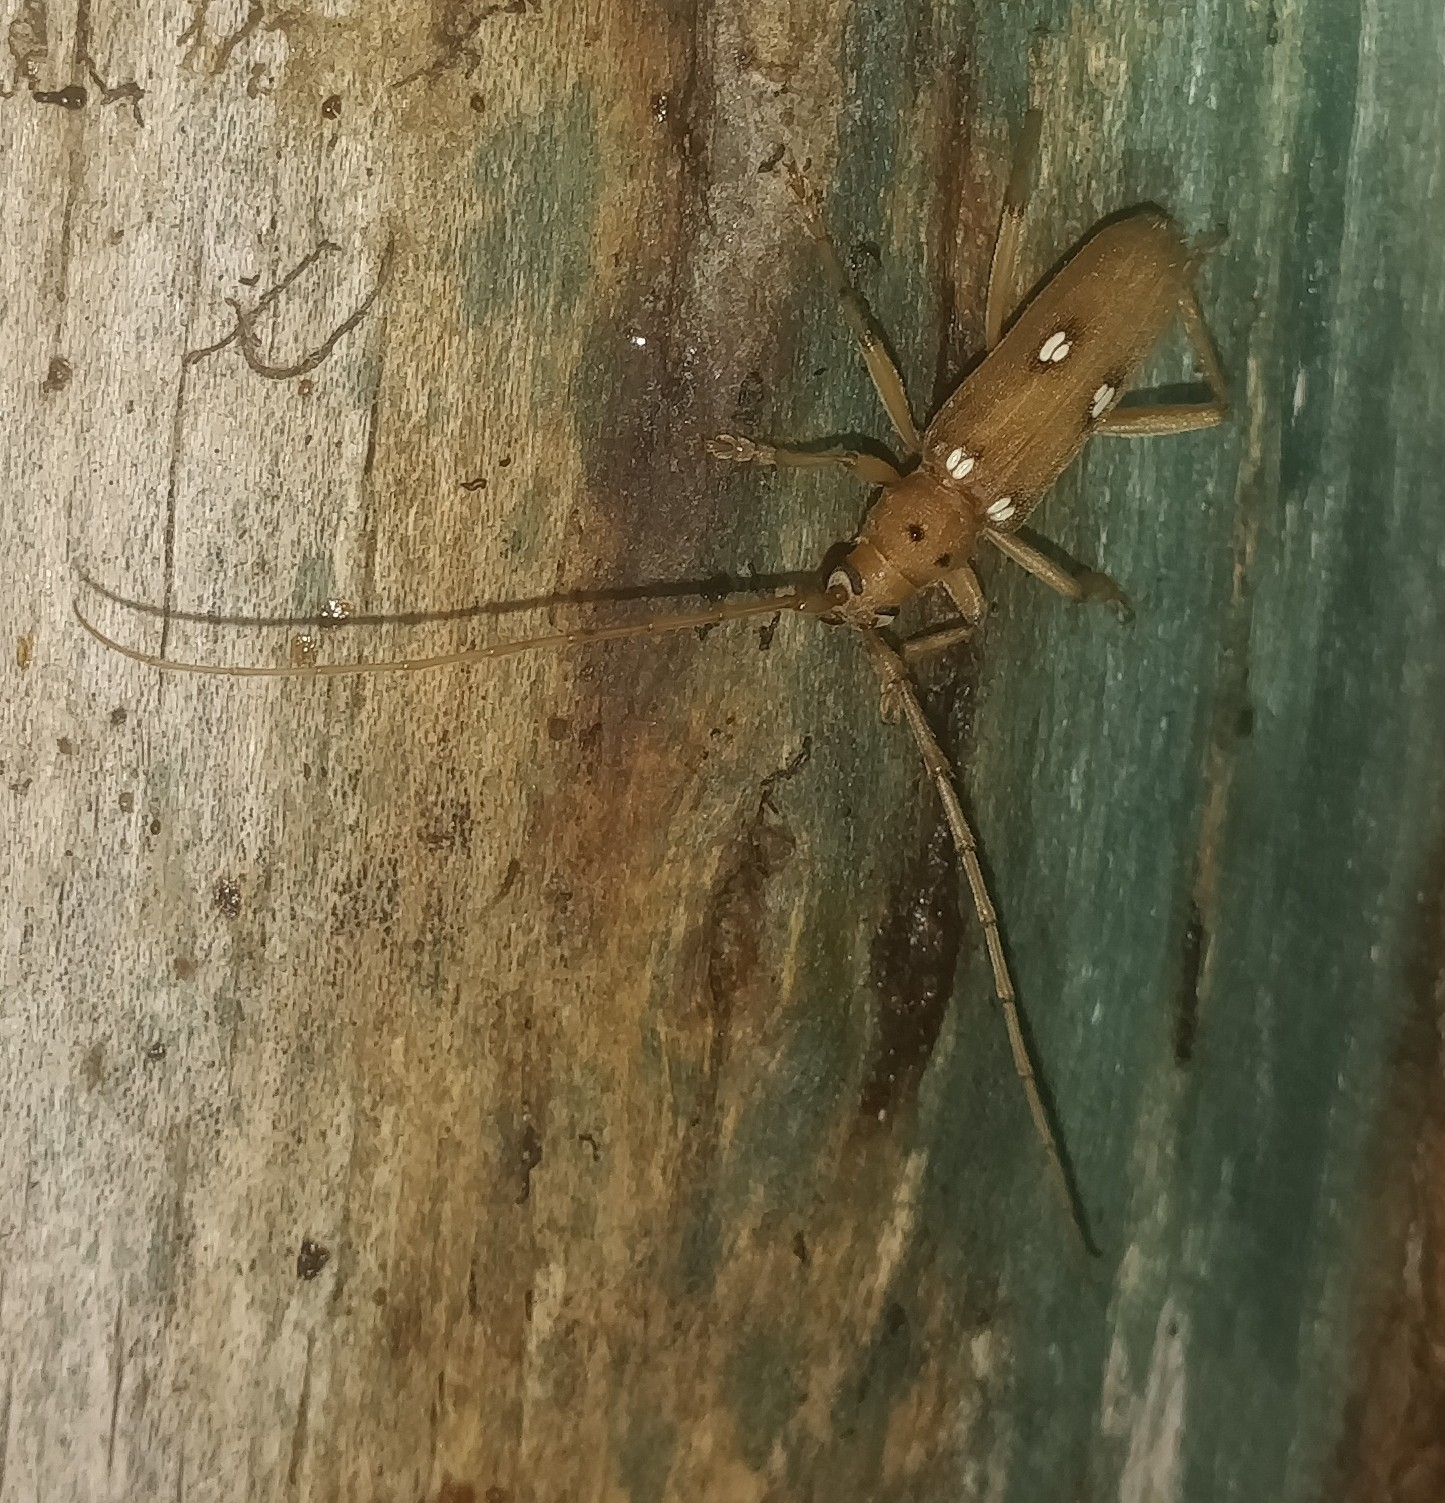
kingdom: Animalia
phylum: Arthropoda
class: Insecta
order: Coleoptera
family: Cerambycidae
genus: Eburia
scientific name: Eburia quadrigeminata
